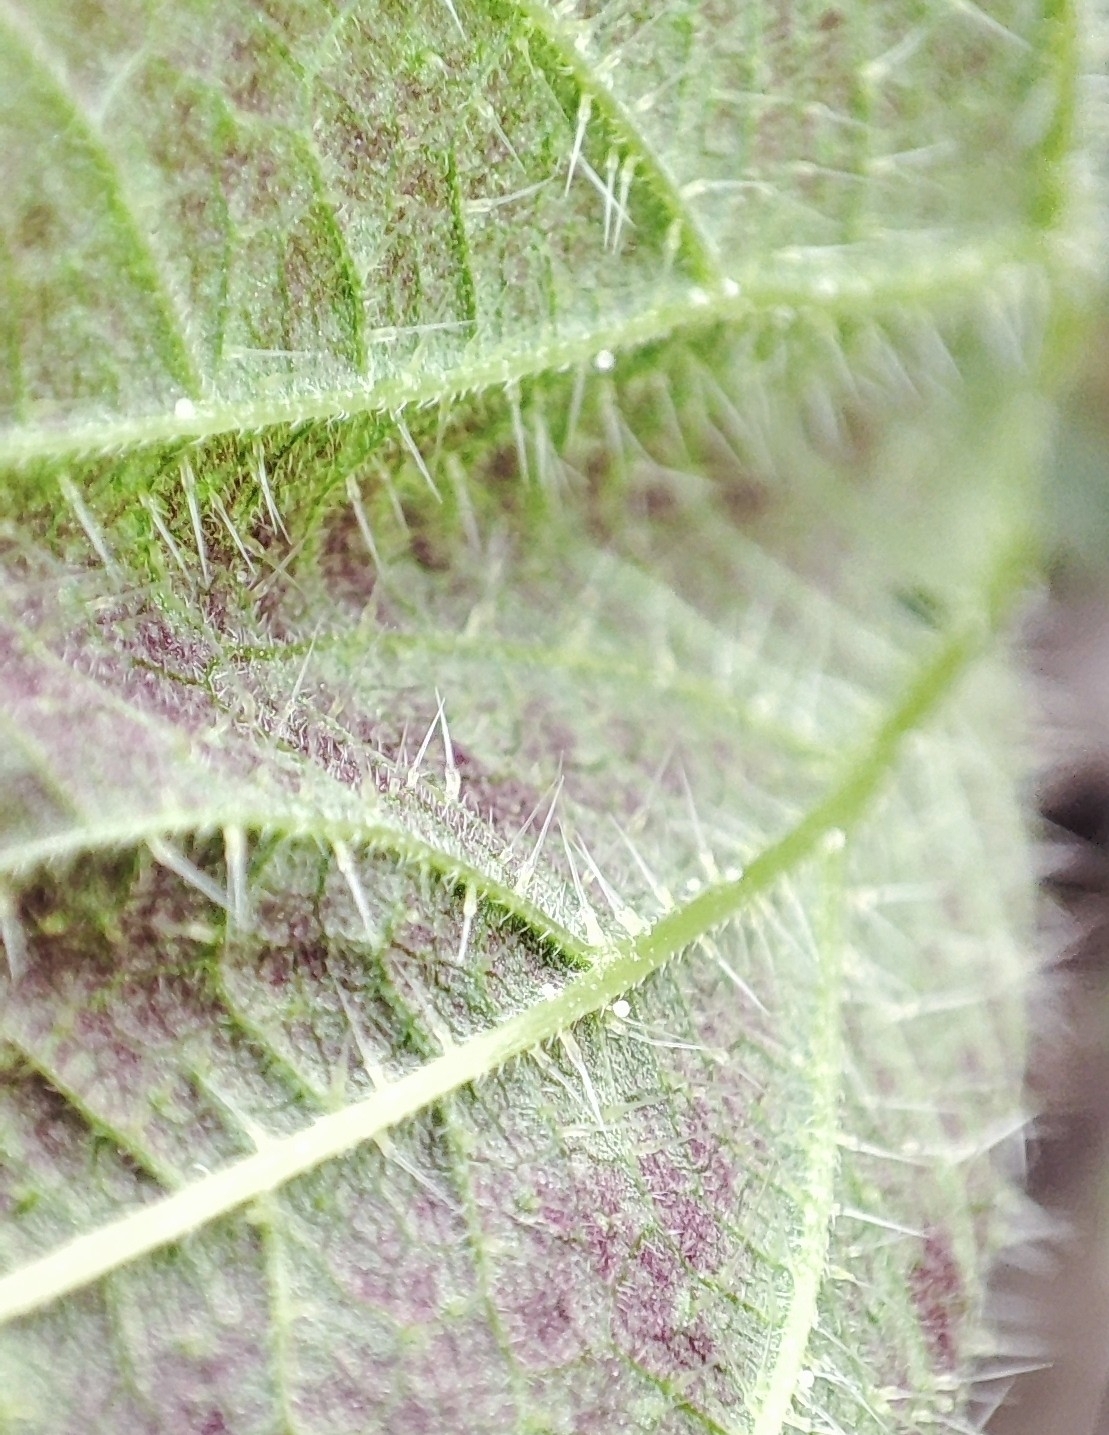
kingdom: Plantae
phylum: Tracheophyta
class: Magnoliopsida
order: Rosales
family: Urticaceae
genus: Urtica
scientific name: Urtica dioica
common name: Common nettle
